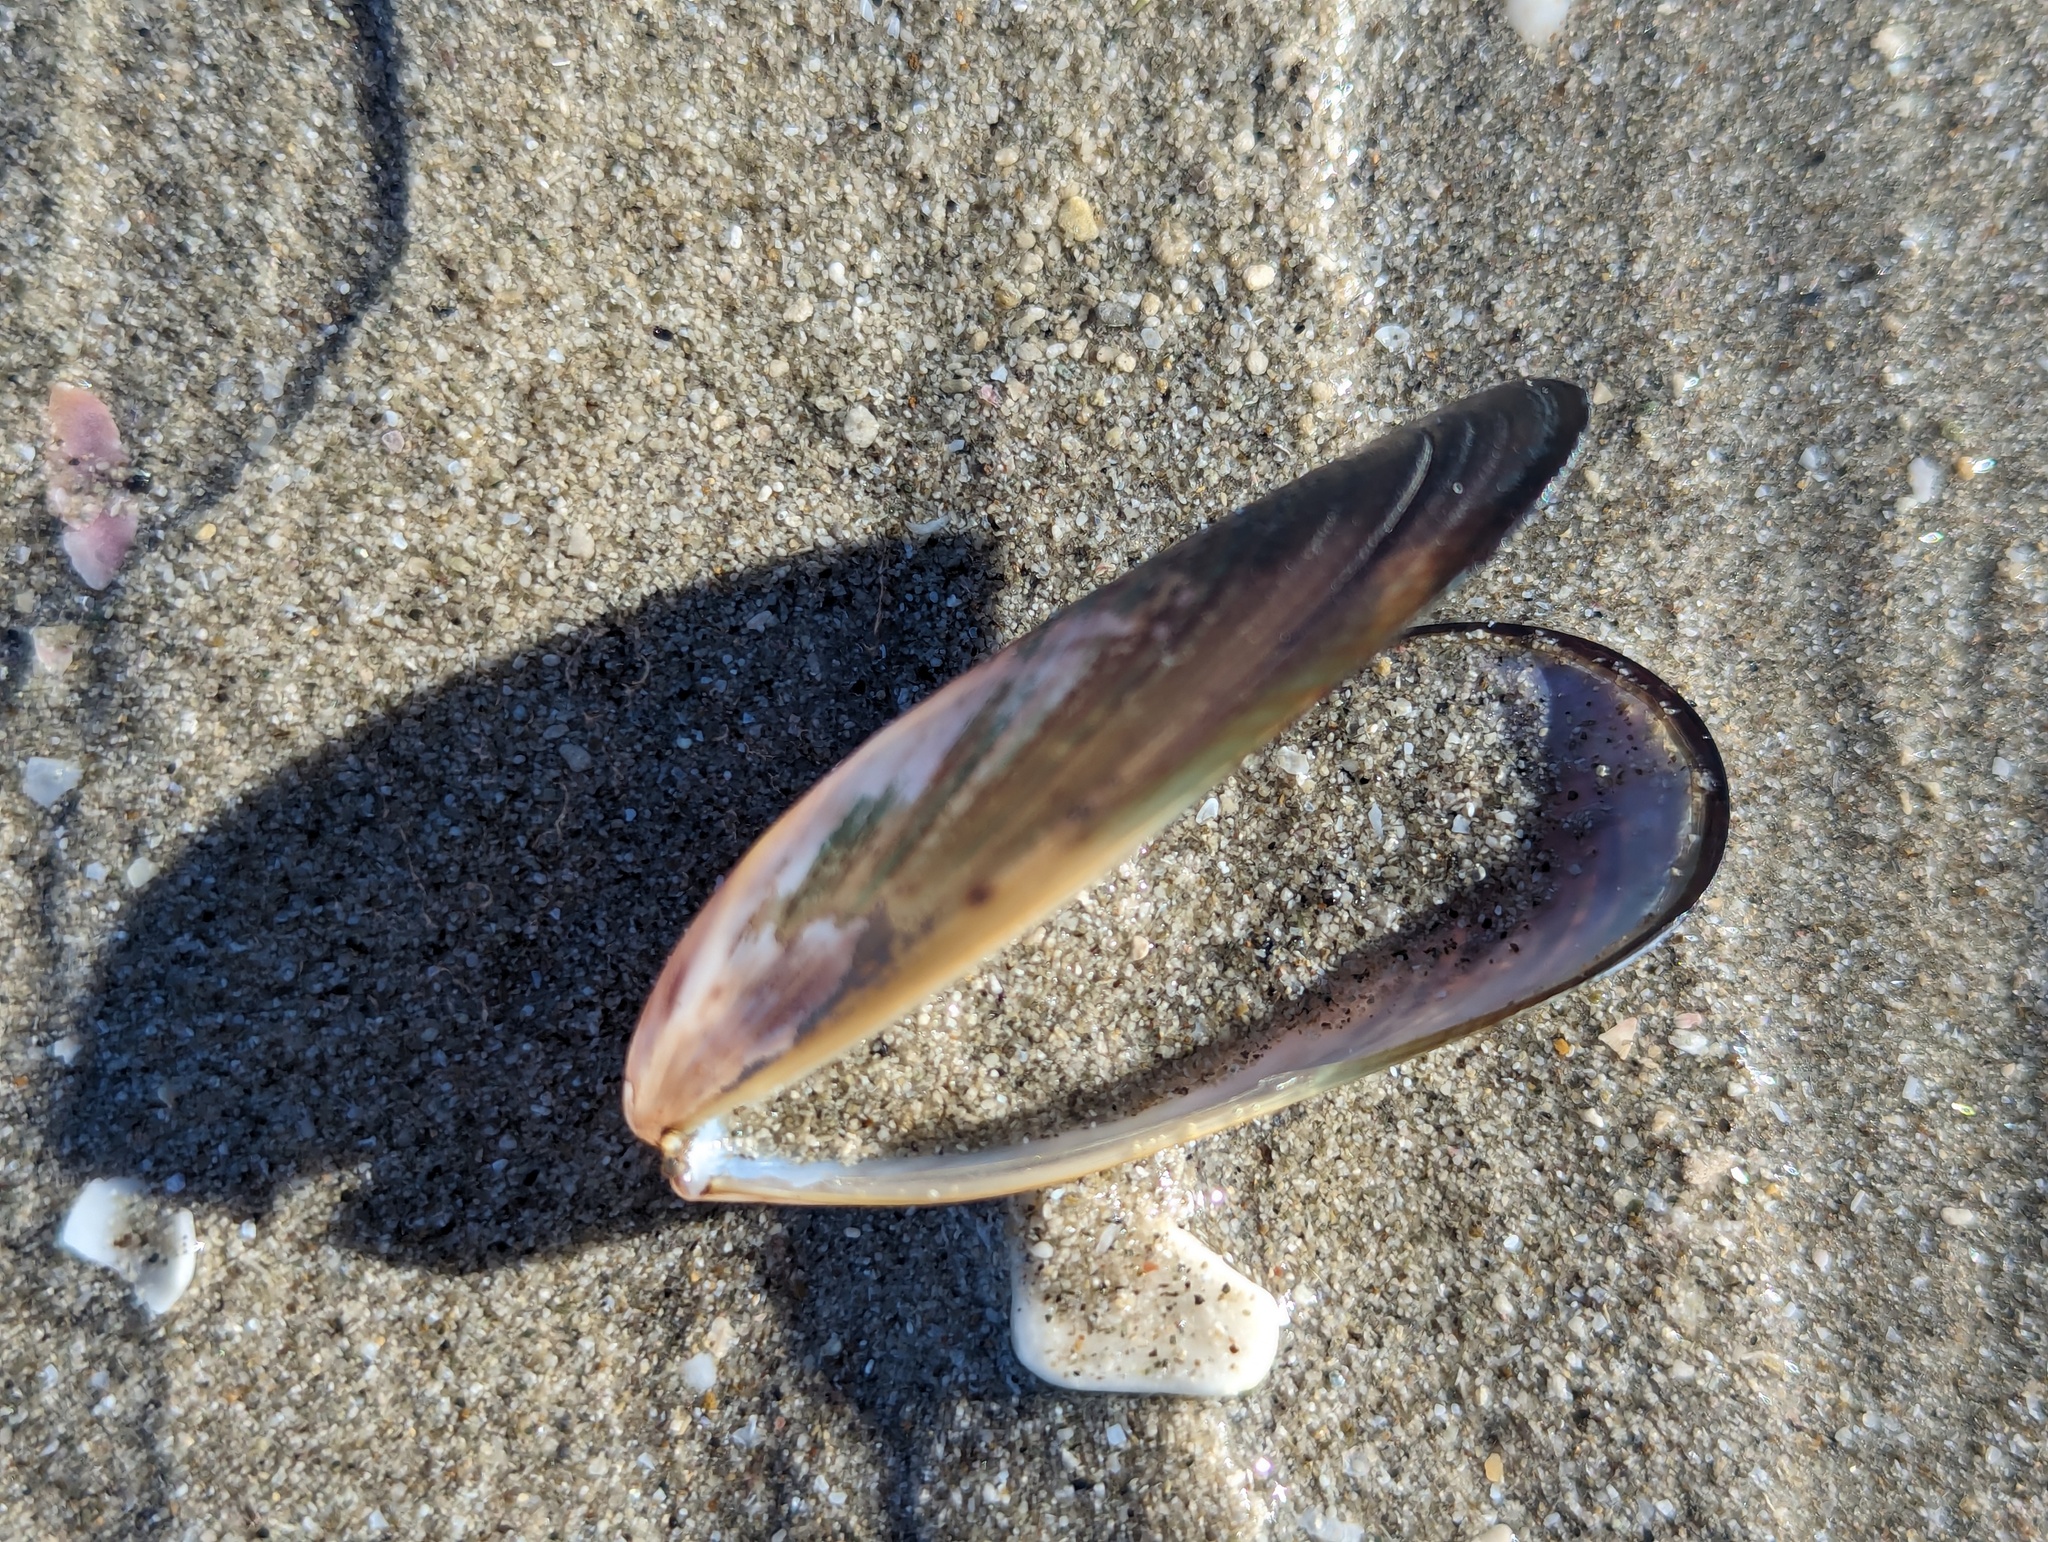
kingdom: Animalia
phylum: Mollusca
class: Bivalvia
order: Mytilida
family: Mytilidae
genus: Perna
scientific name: Perna canaliculus
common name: New zealand greenshelltm
